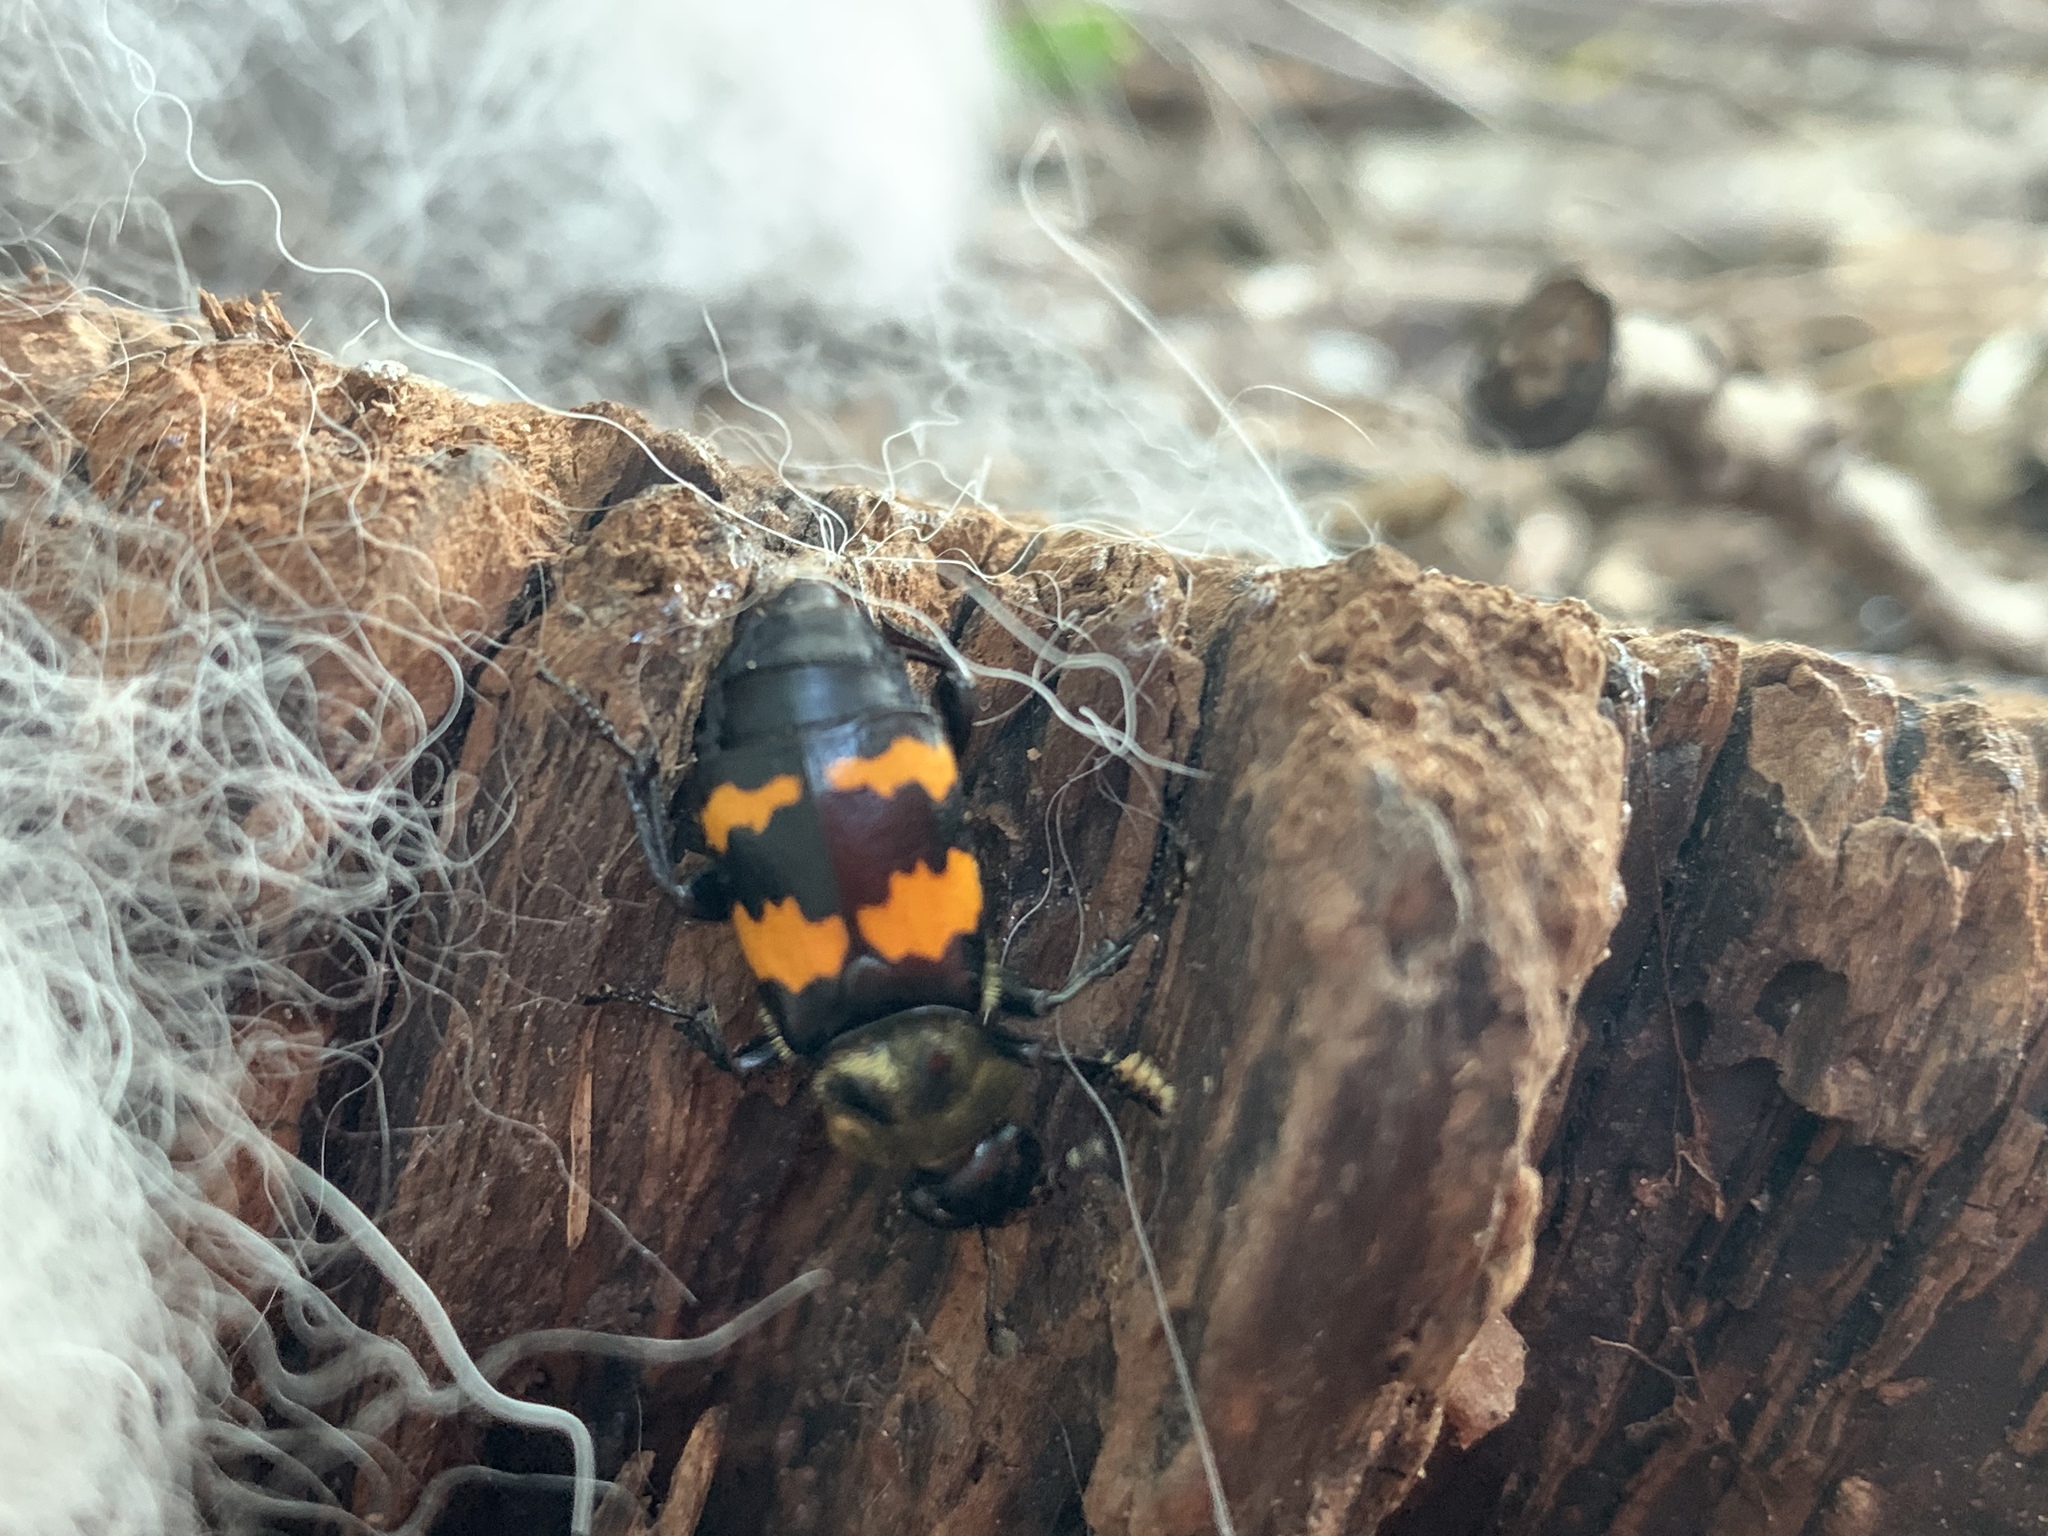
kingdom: Animalia
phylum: Arthropoda
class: Insecta
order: Coleoptera
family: Staphylinidae
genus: Nicrophorus
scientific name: Nicrophorus tomentosus
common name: Tomentose burying beetle
